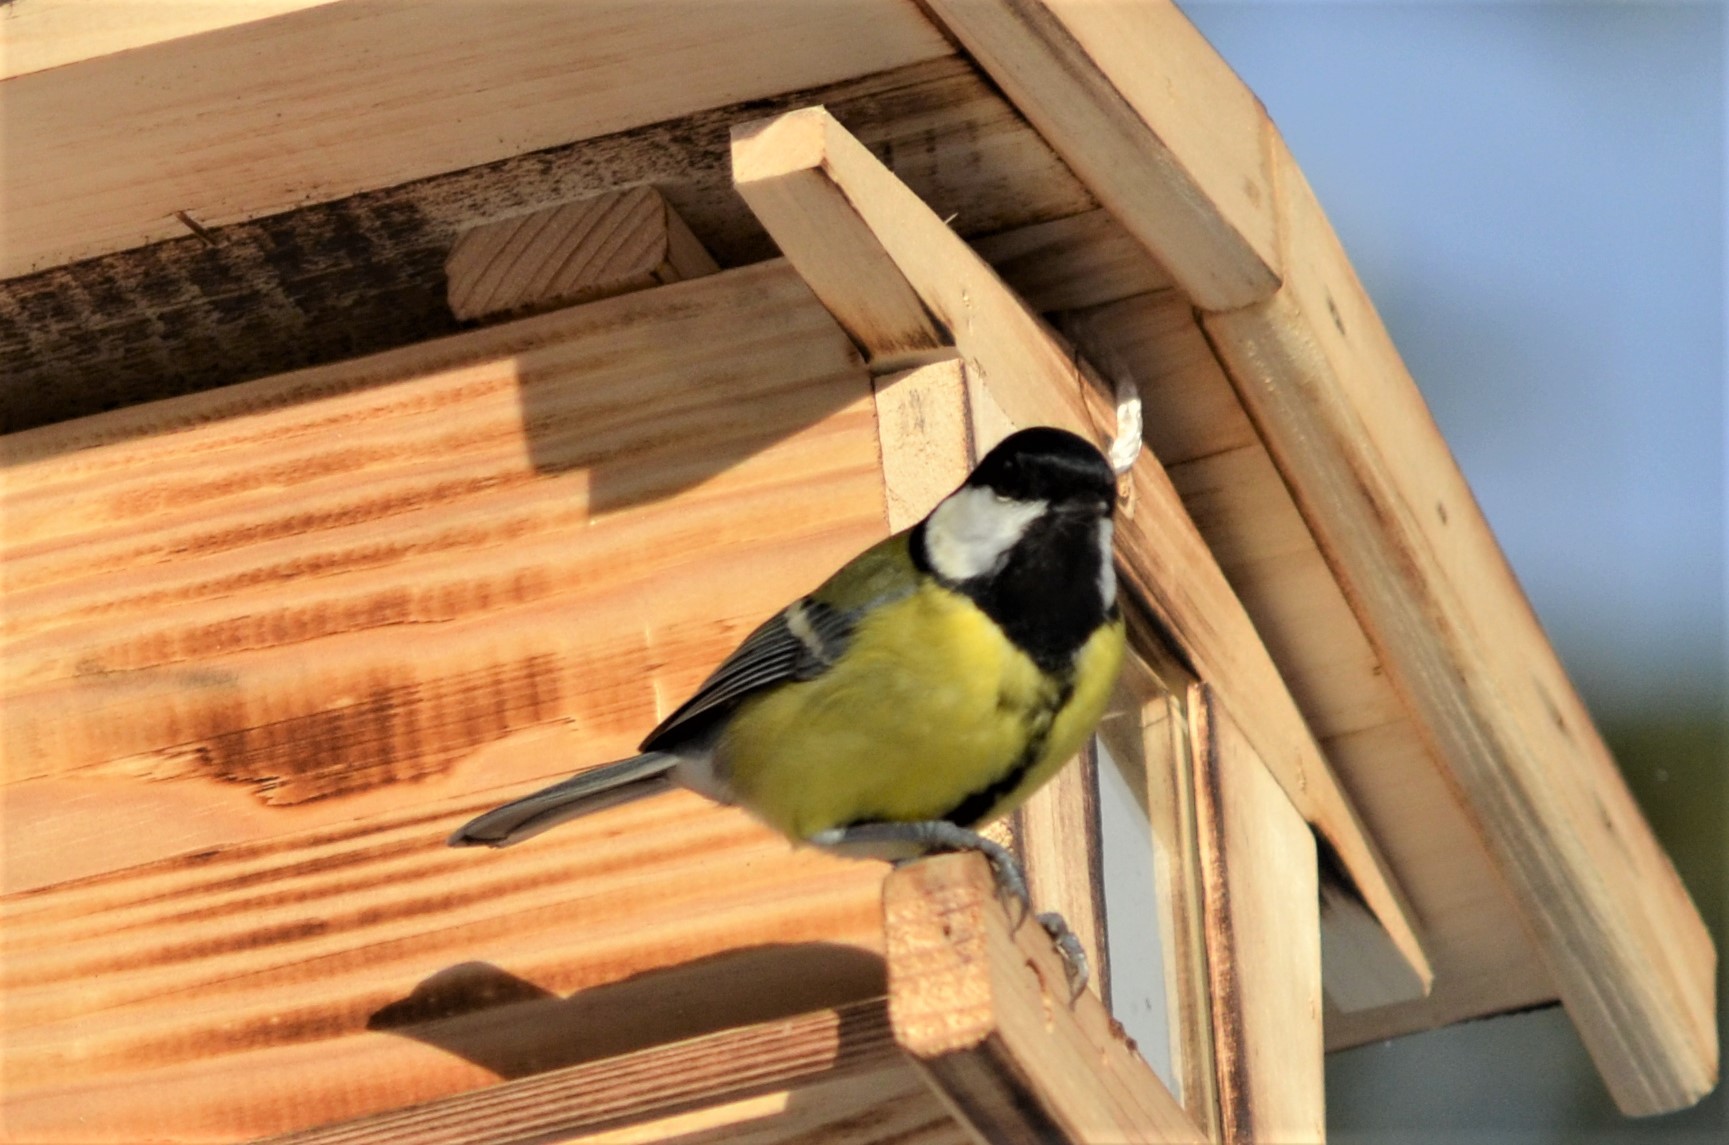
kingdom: Animalia
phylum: Chordata
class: Aves
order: Passeriformes
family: Paridae
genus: Parus
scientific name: Parus major
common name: Great tit
